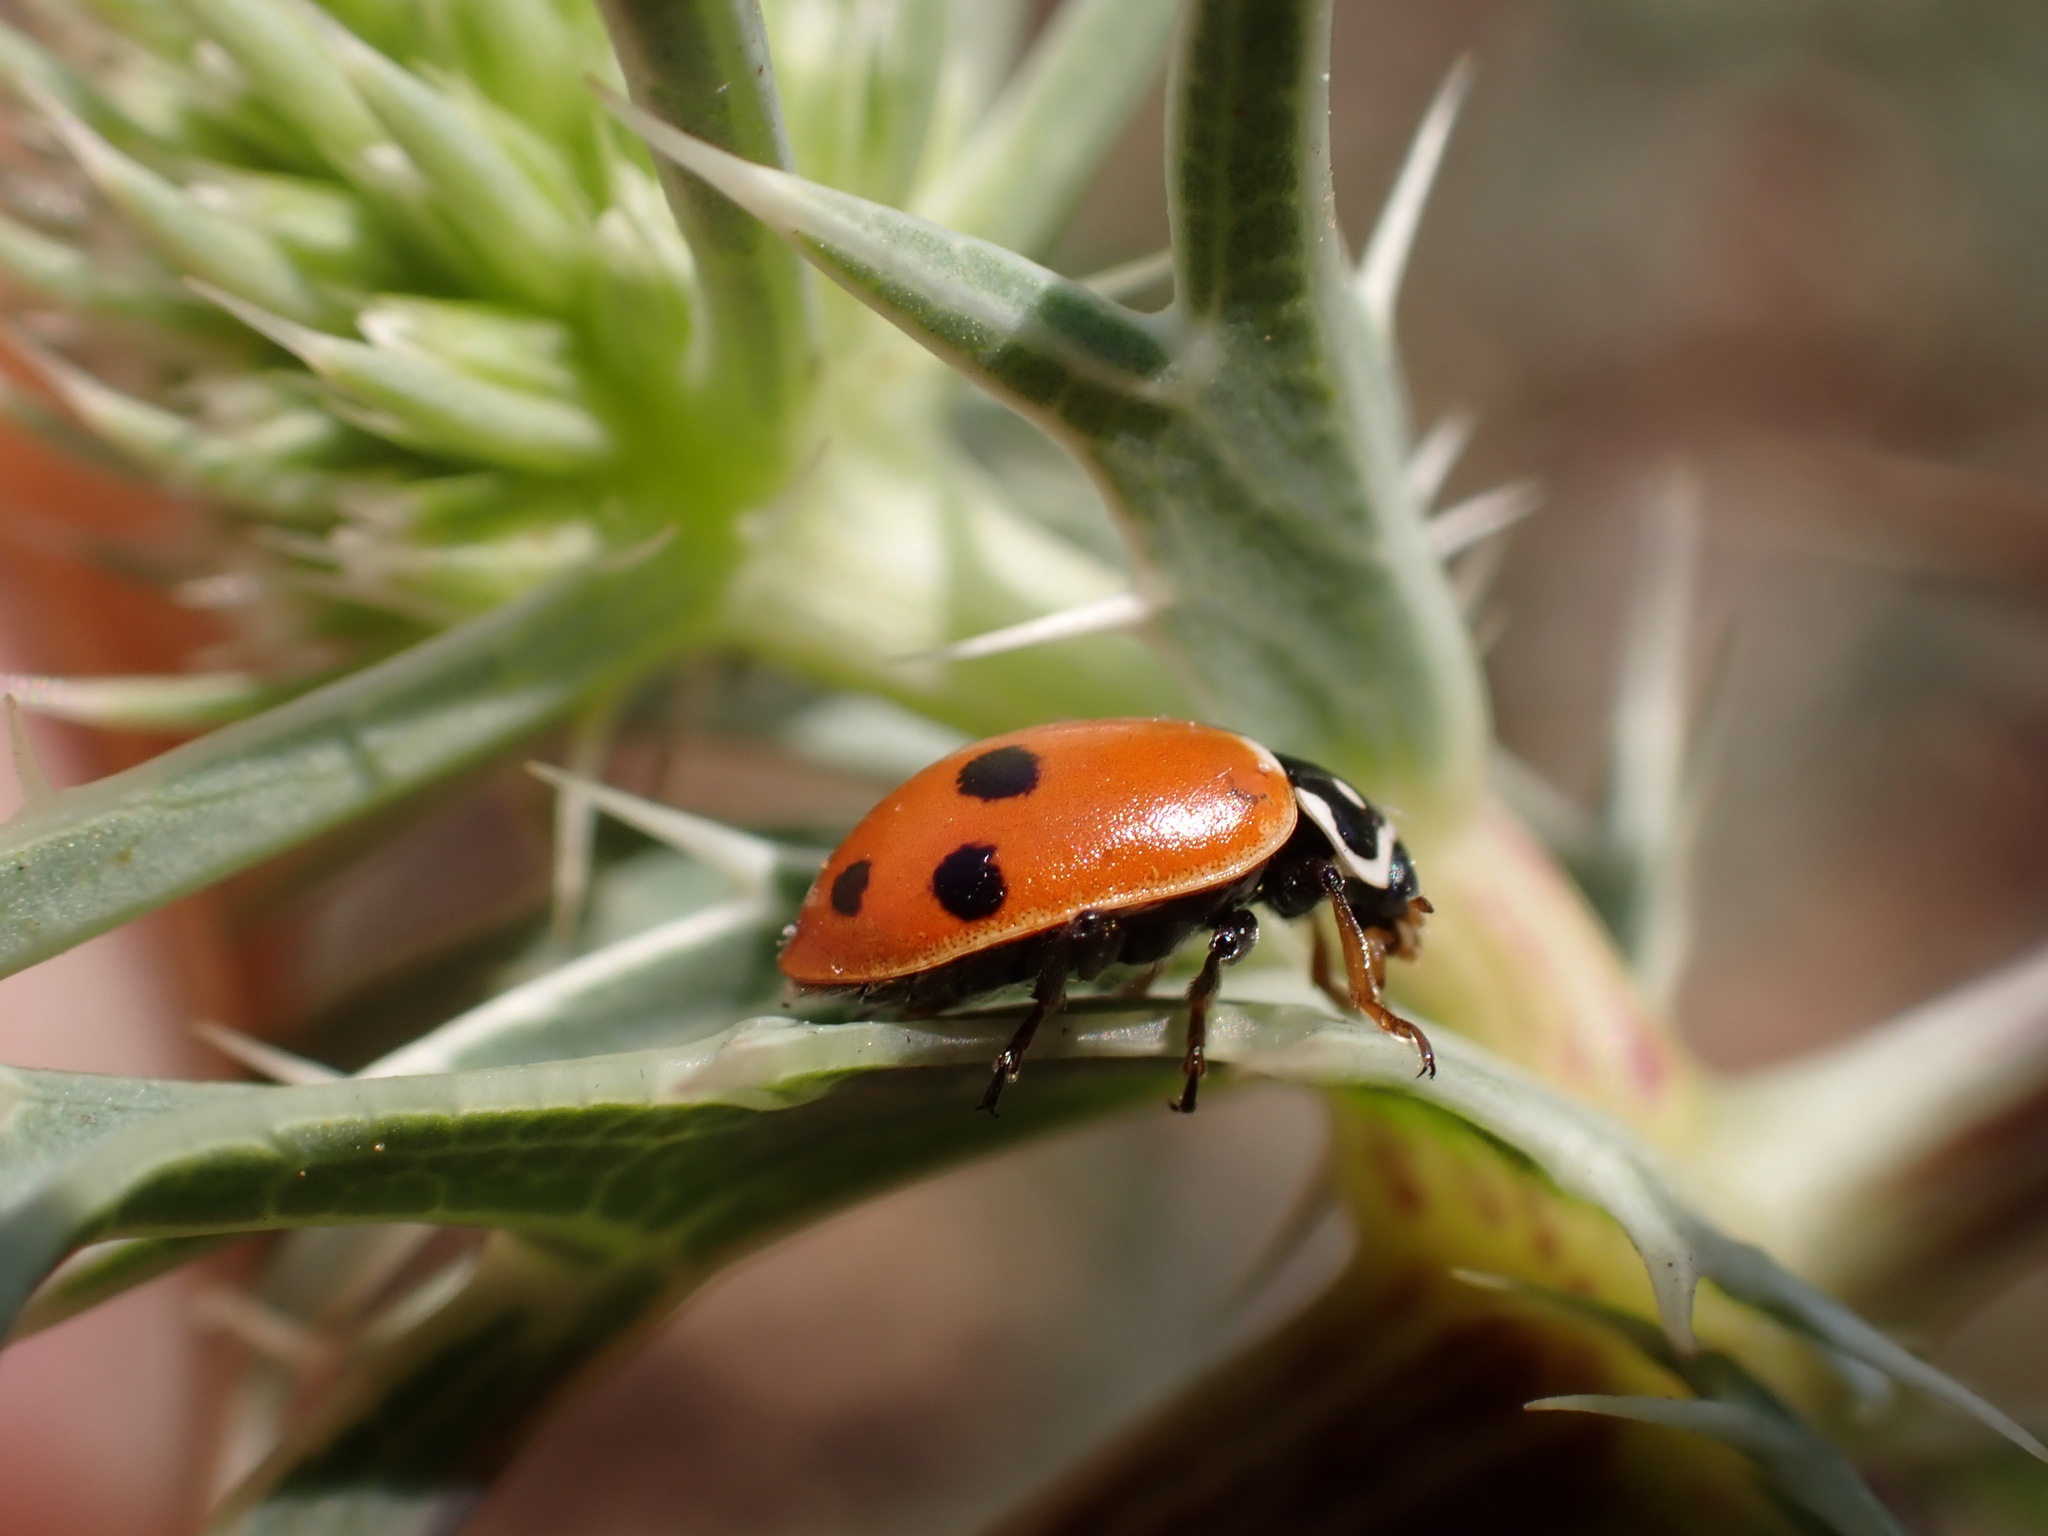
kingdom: Animalia
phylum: Arthropoda
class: Insecta
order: Coleoptera
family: Coccinellidae
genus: Hippodamia
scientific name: Hippodamia variegata
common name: Ladybird beetle
